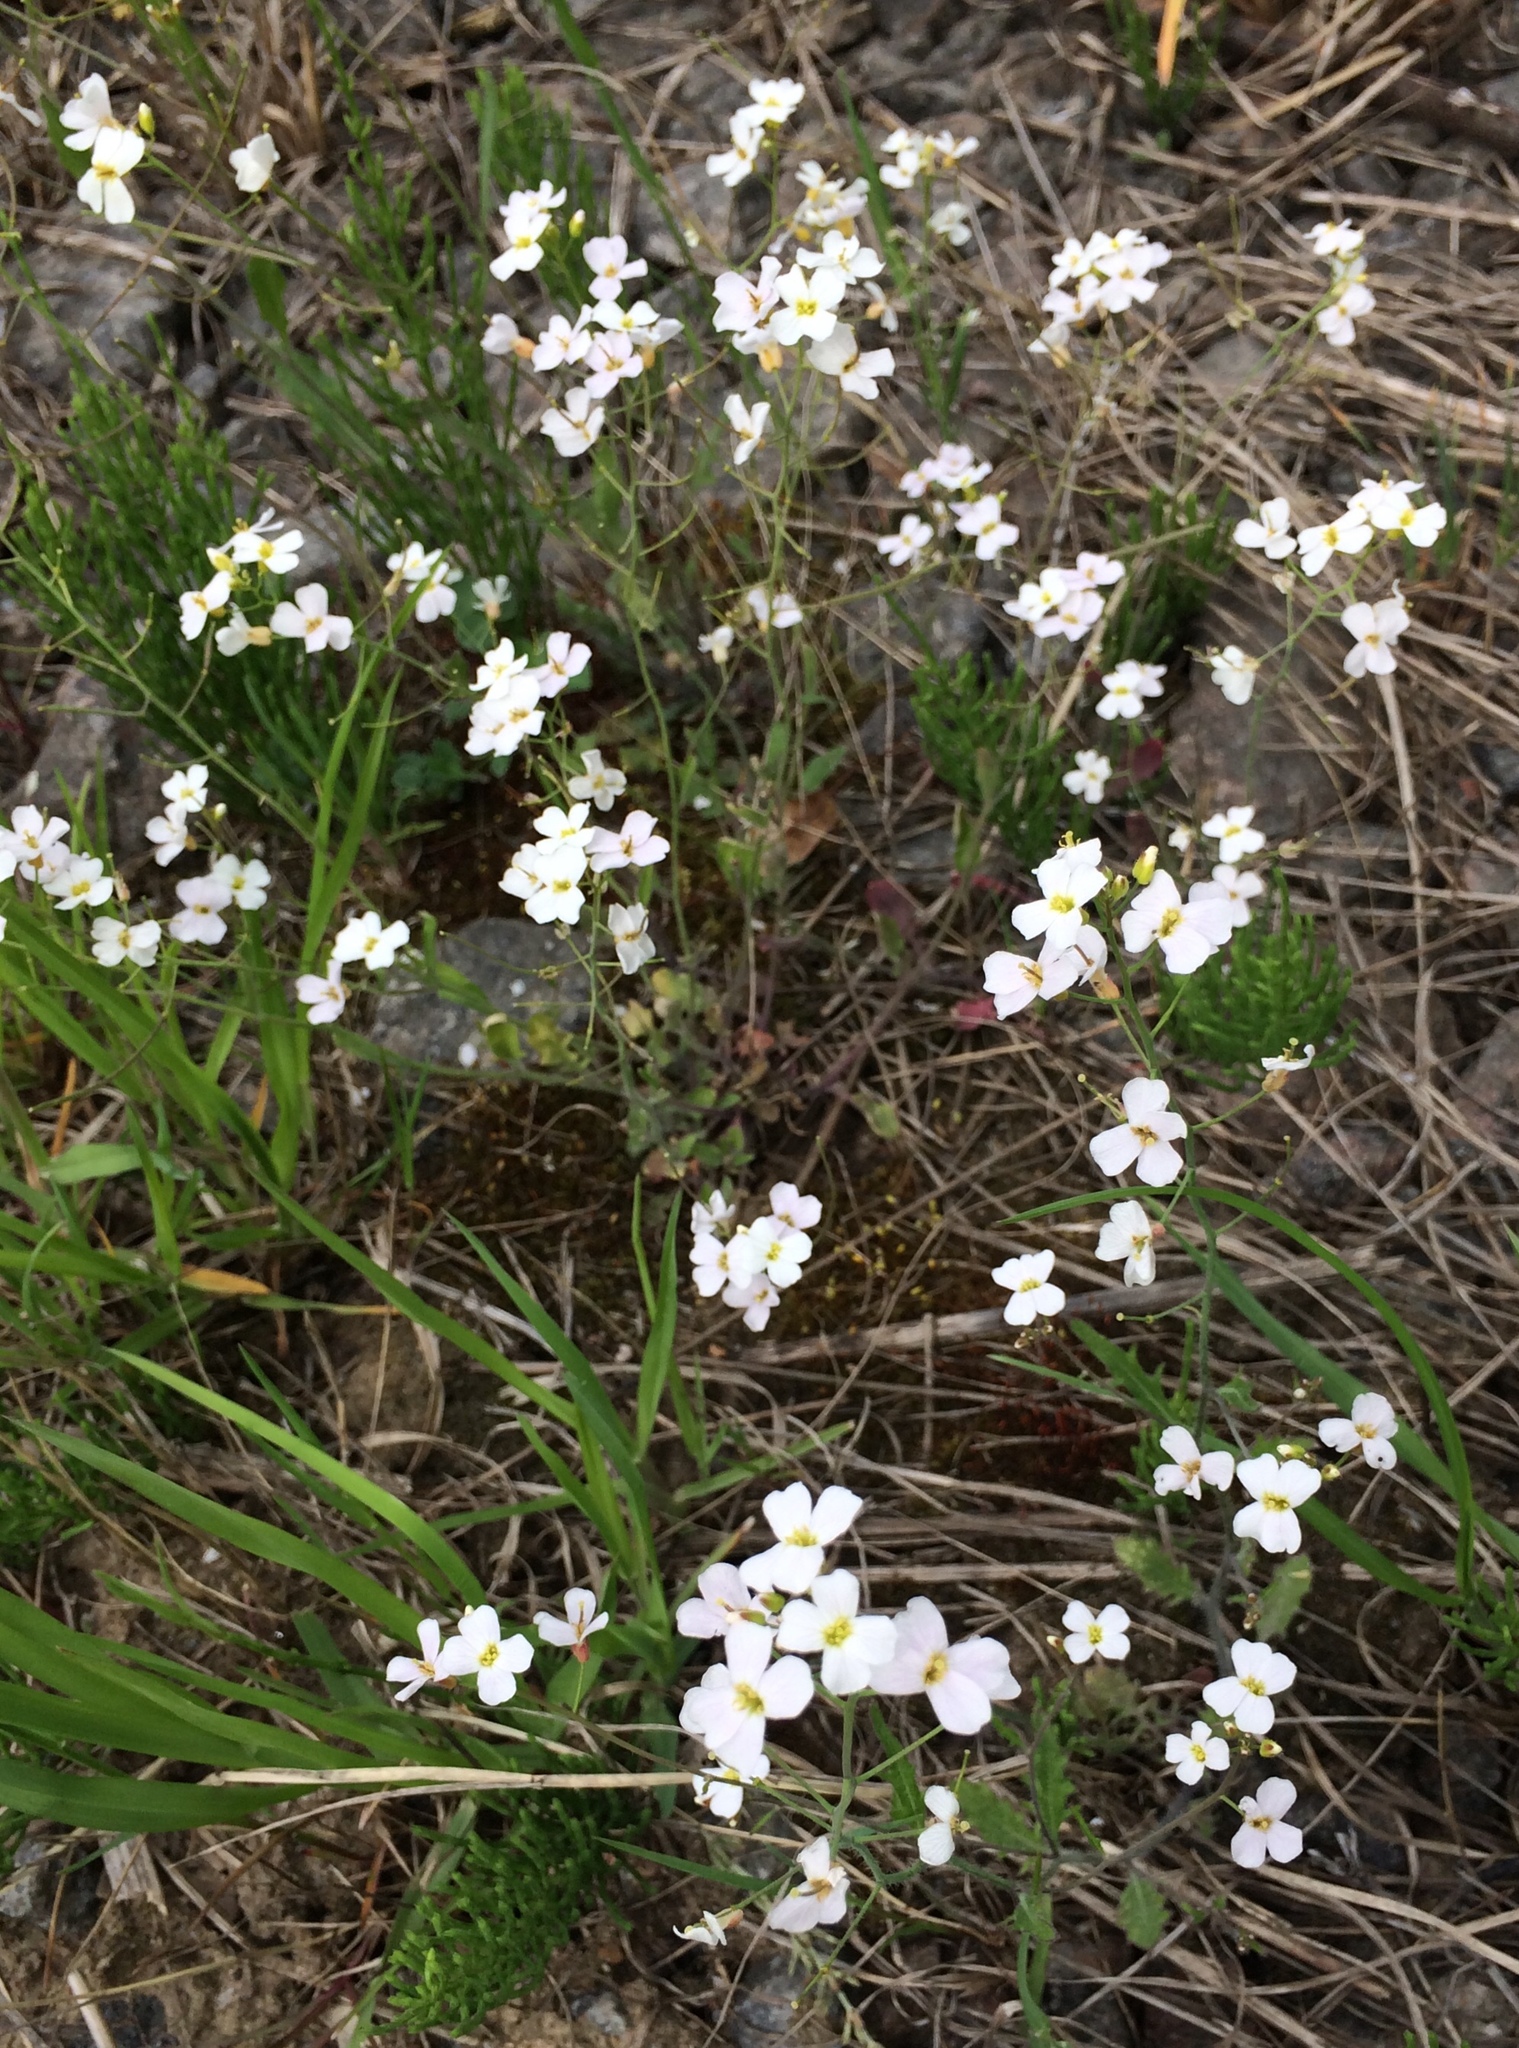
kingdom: Plantae
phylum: Tracheophyta
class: Magnoliopsida
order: Brassicales
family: Brassicaceae
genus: Arabidopsis
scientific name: Arabidopsis arenosa
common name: Sand rock-cress
